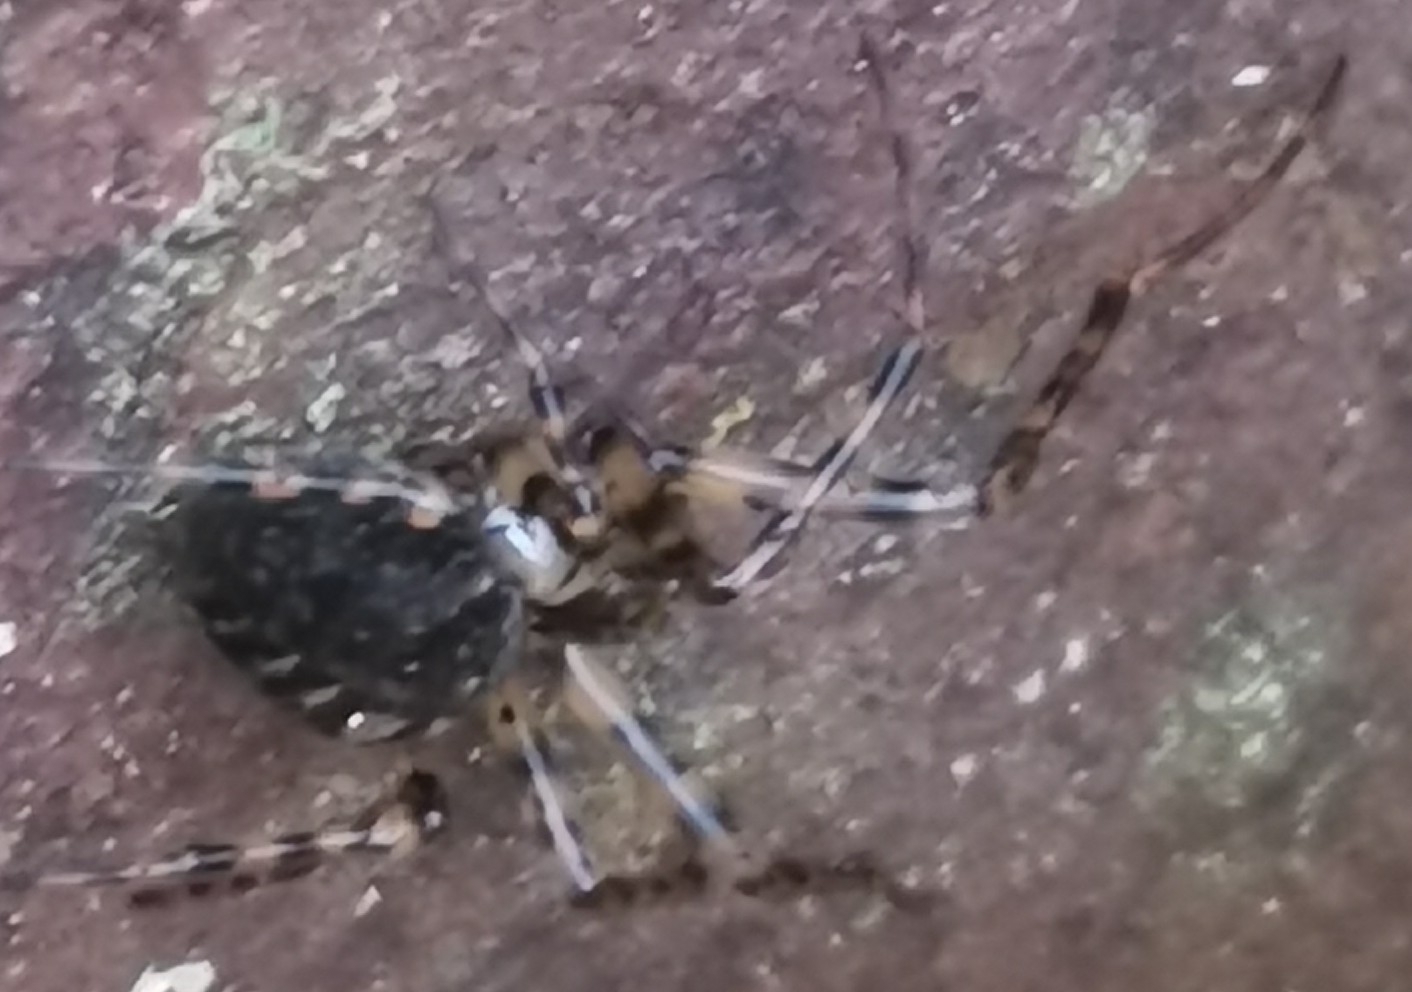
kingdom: Animalia
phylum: Arthropoda
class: Arachnida
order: Araneae
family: Tetragnathidae
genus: Metellina
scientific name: Metellina merianae
